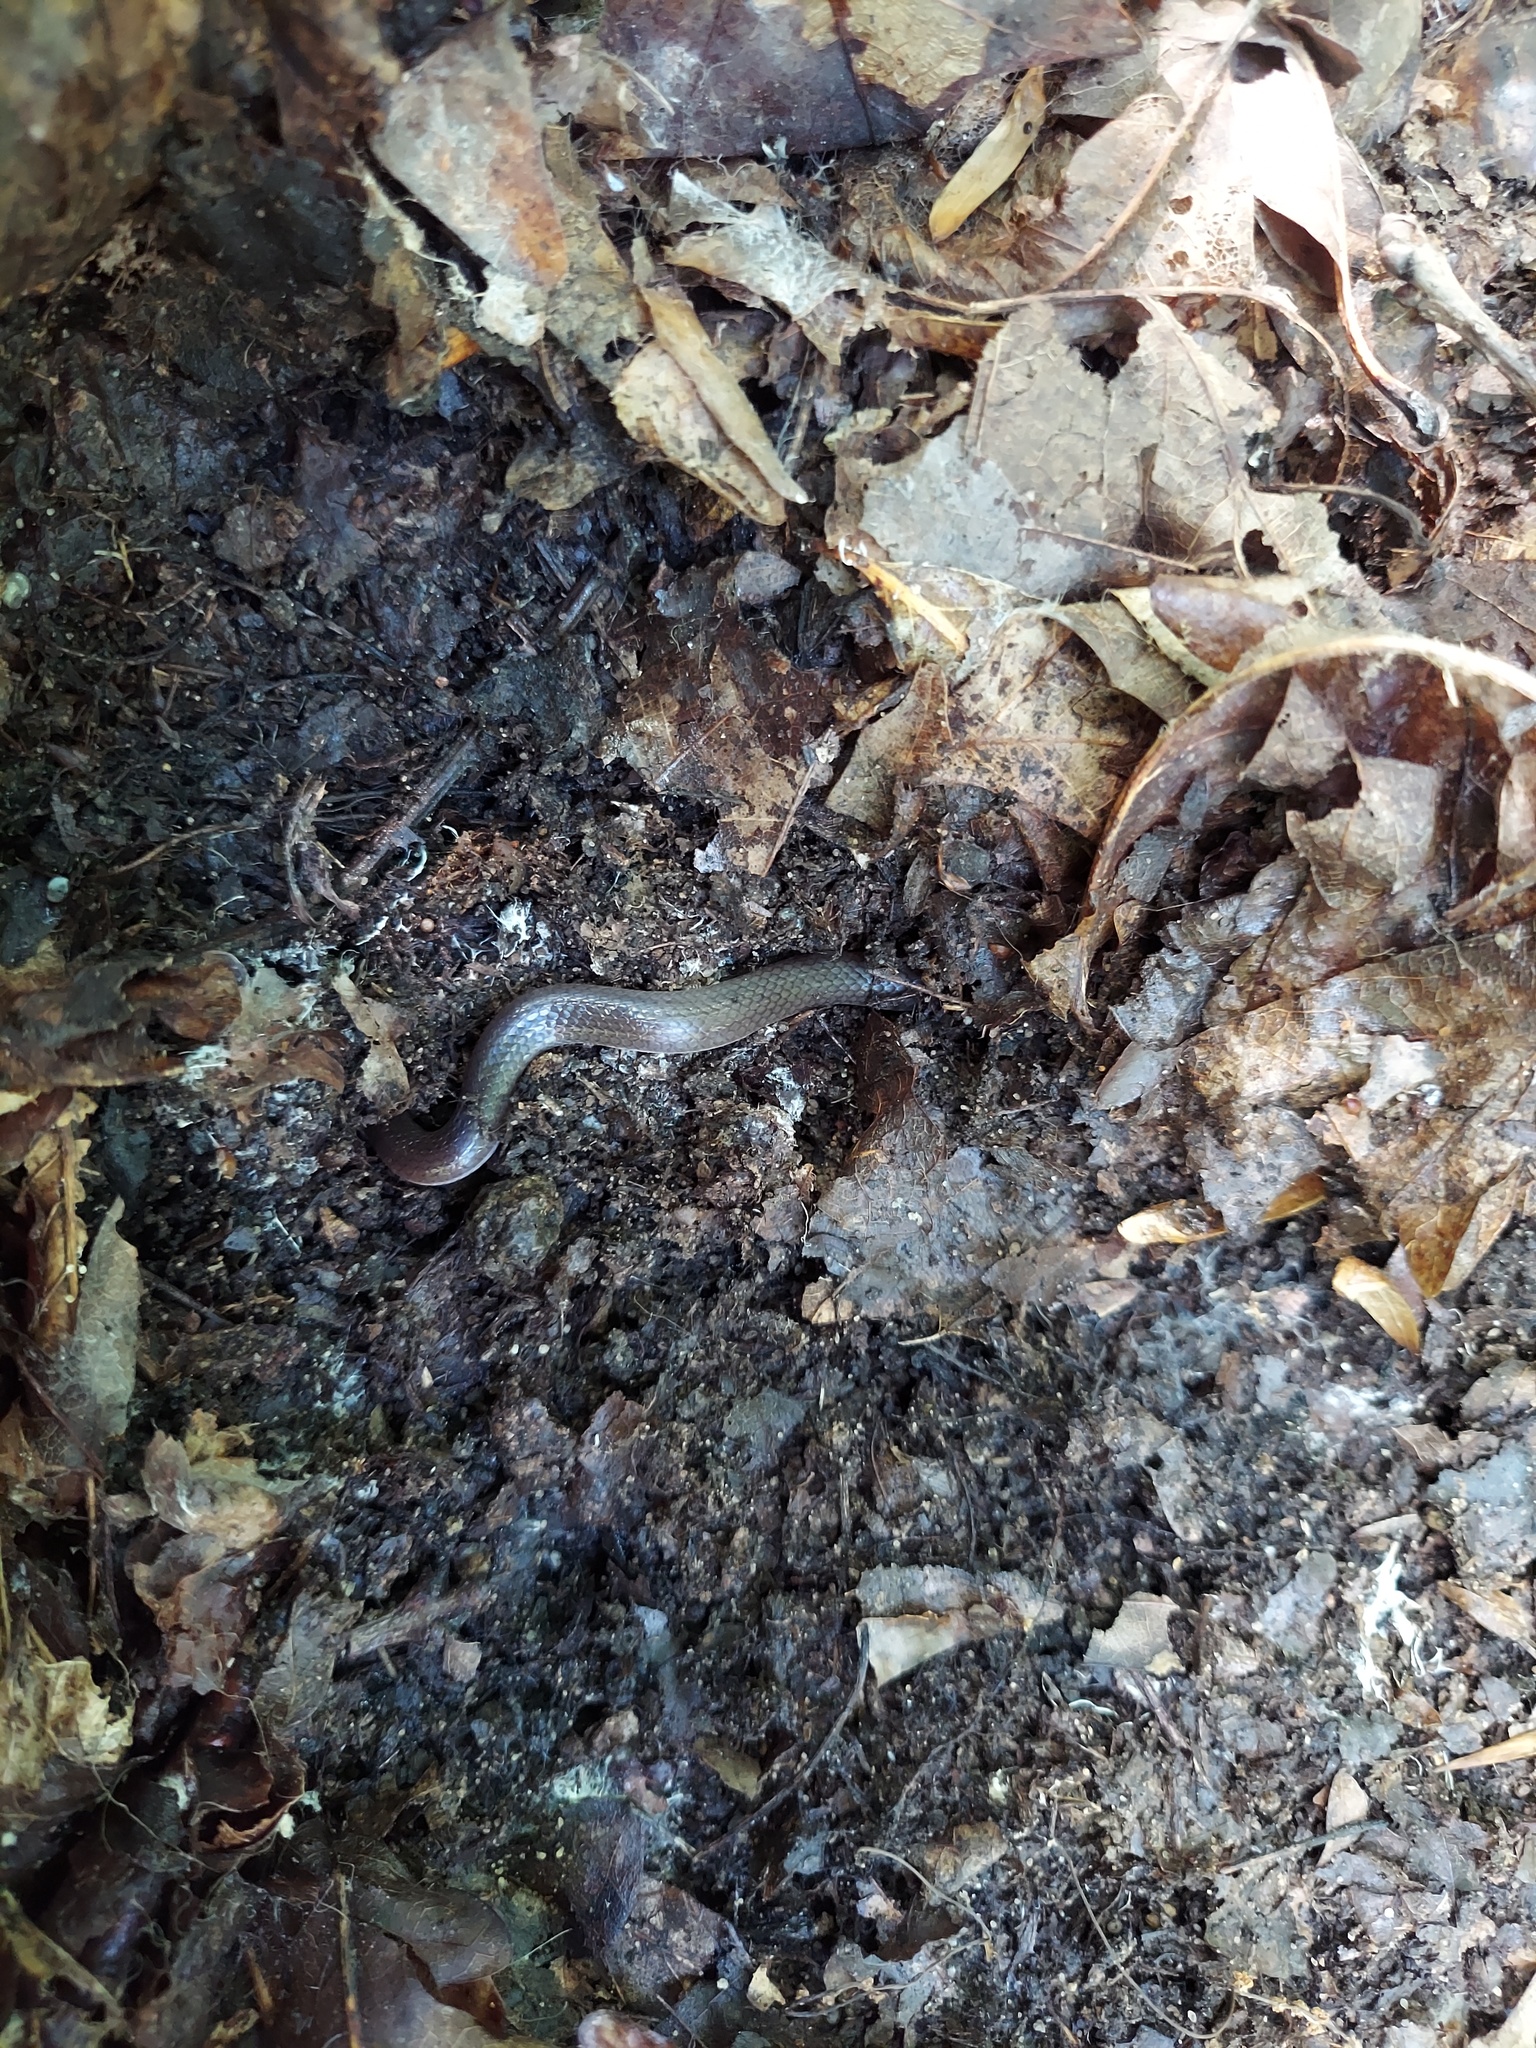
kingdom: Animalia
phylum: Chordata
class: Squamata
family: Colubridae
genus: Carphophis
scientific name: Carphophis amoenus
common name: Eastern worm snake
